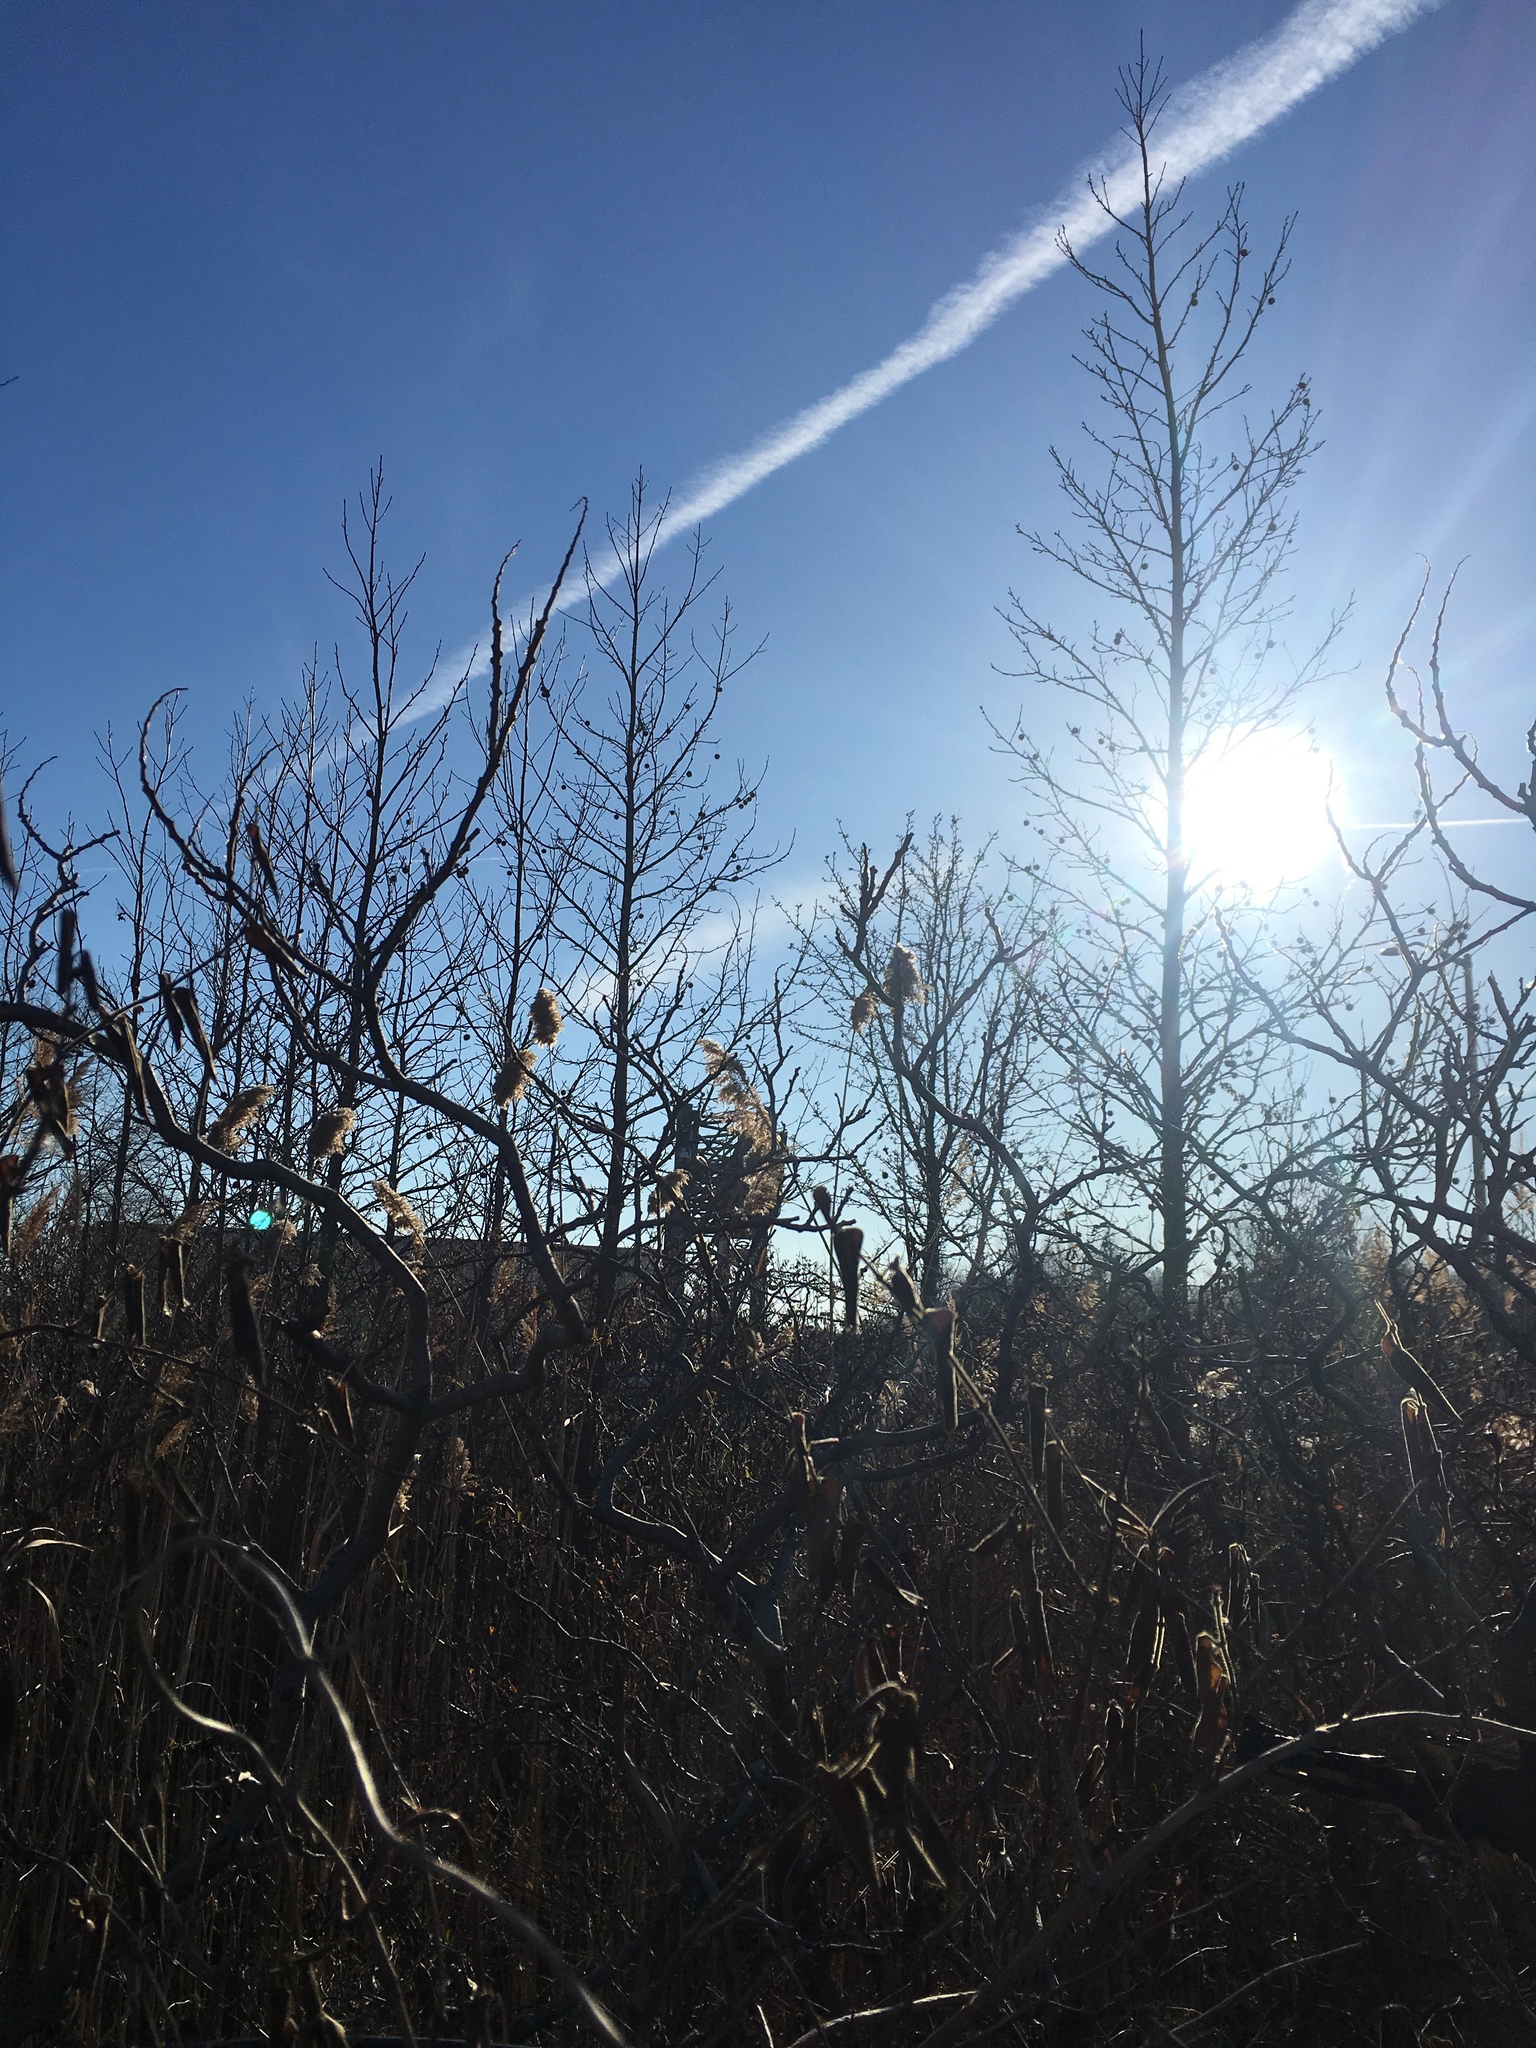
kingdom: Plantae
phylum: Tracheophyta
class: Magnoliopsida
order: Saxifragales
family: Altingiaceae
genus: Liquidambar
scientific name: Liquidambar styraciflua
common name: Sweet gum
